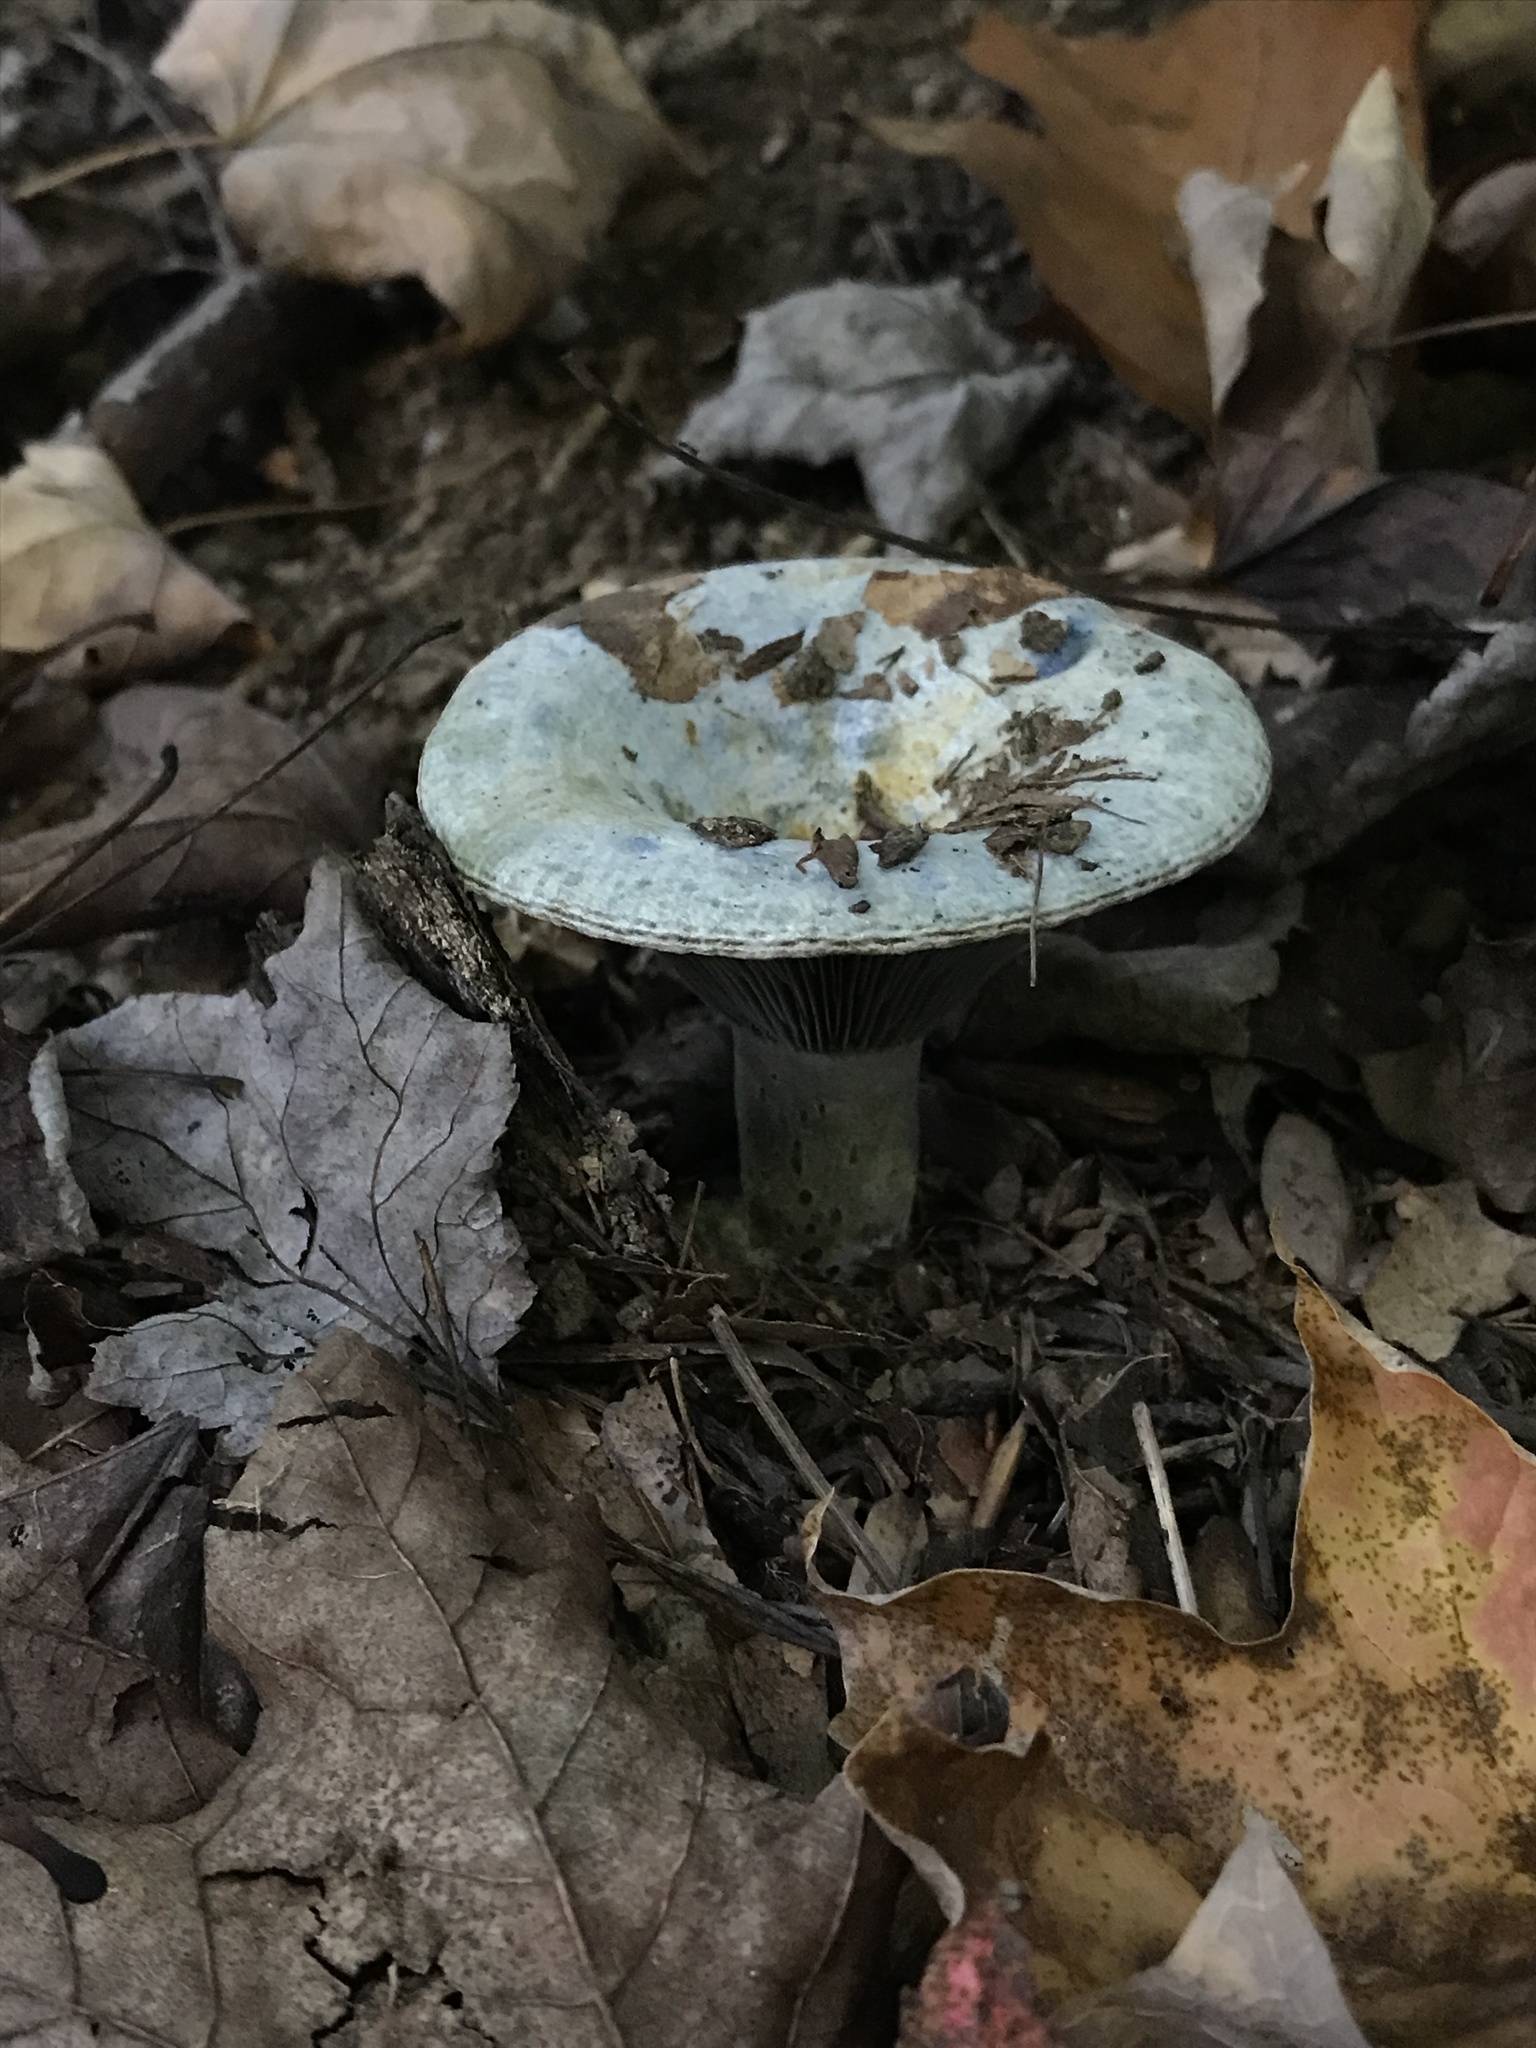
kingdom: Fungi
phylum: Basidiomycota
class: Agaricomycetes
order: Russulales
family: Russulaceae
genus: Lactarius
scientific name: Lactarius indigo
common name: Indigo milk cap
